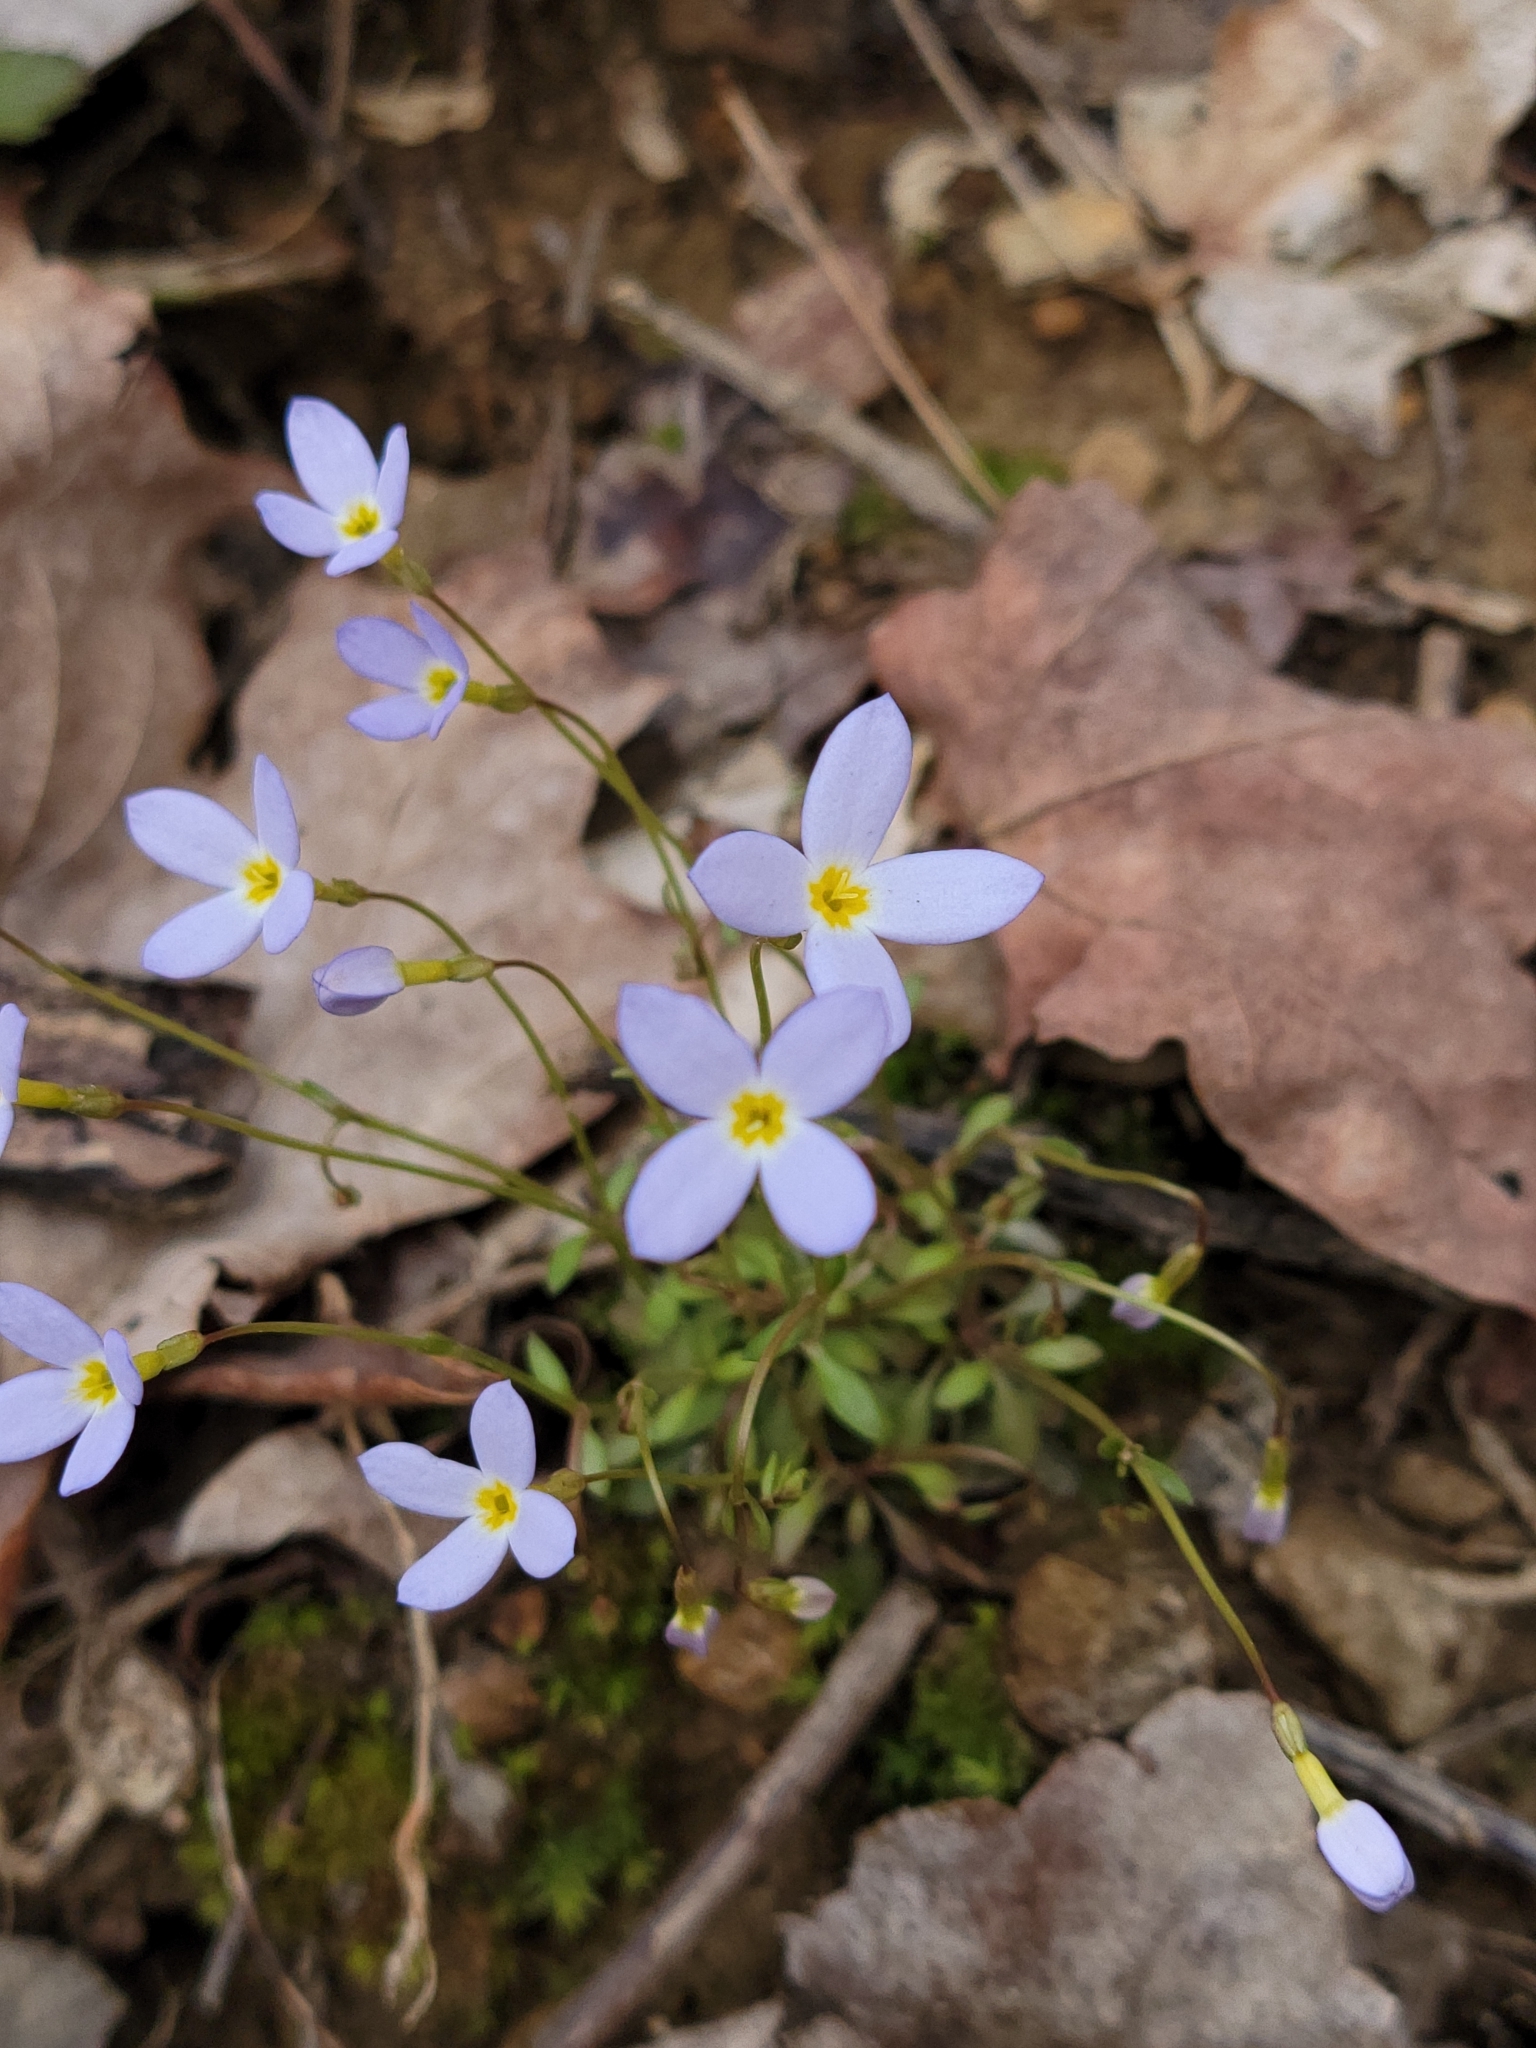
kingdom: Plantae
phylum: Tracheophyta
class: Magnoliopsida
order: Gentianales
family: Rubiaceae
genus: Houstonia
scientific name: Houstonia caerulea
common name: Bluets
